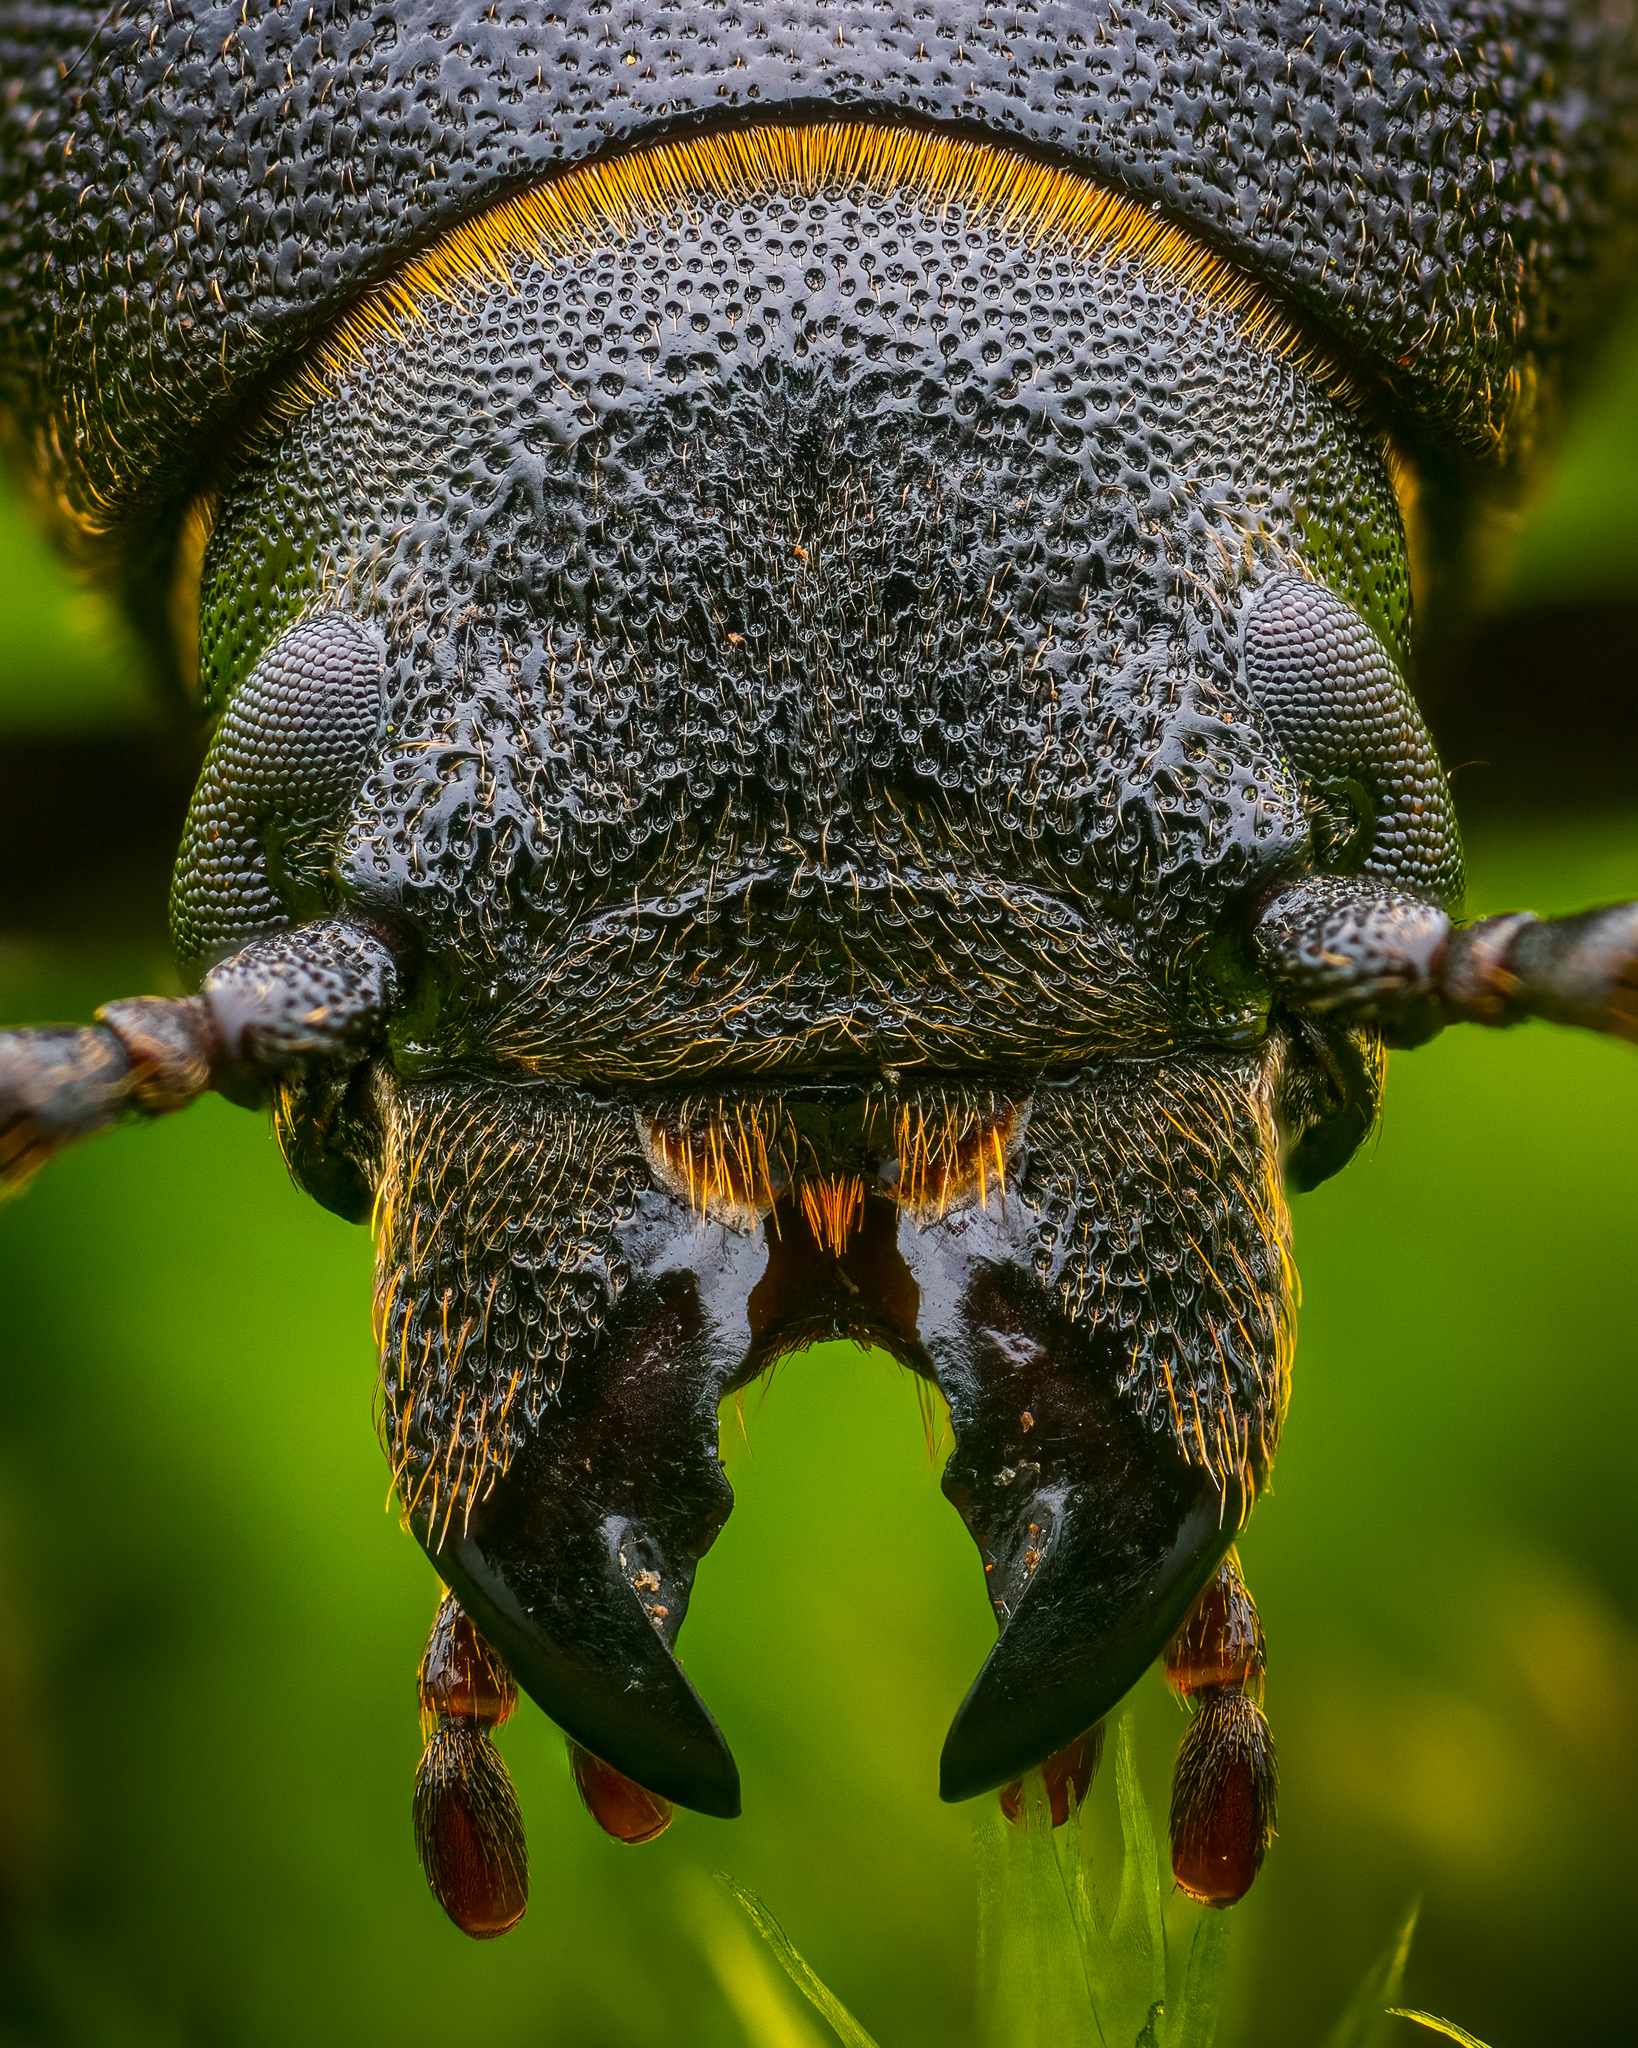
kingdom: Animalia
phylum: Arthropoda
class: Insecta
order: Coleoptera
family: Cerambycidae
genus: Spondylis
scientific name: Spondylis buprestoides
